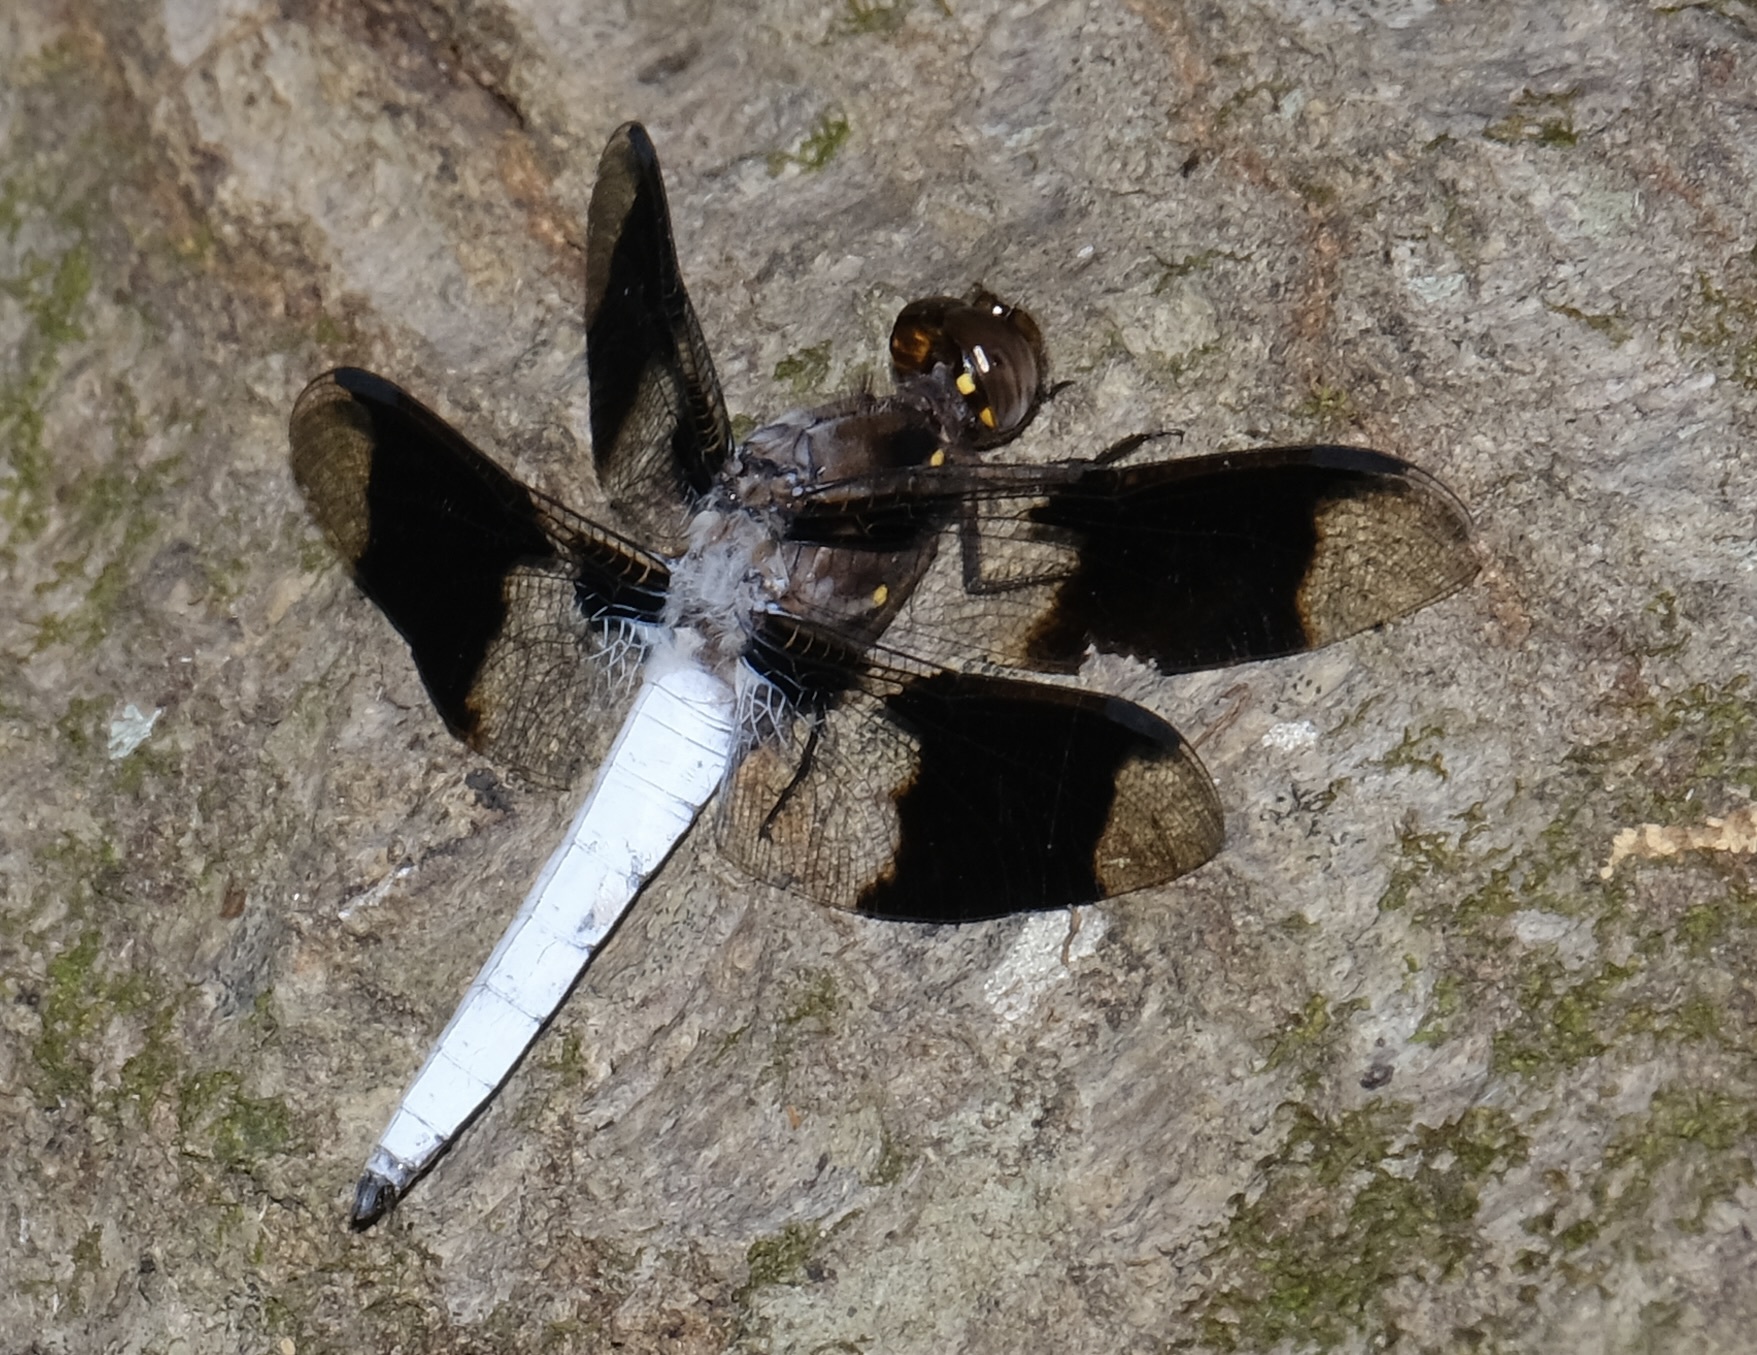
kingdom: Animalia
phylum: Arthropoda
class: Insecta
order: Odonata
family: Libellulidae
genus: Plathemis
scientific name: Plathemis lydia
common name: Common whitetail
